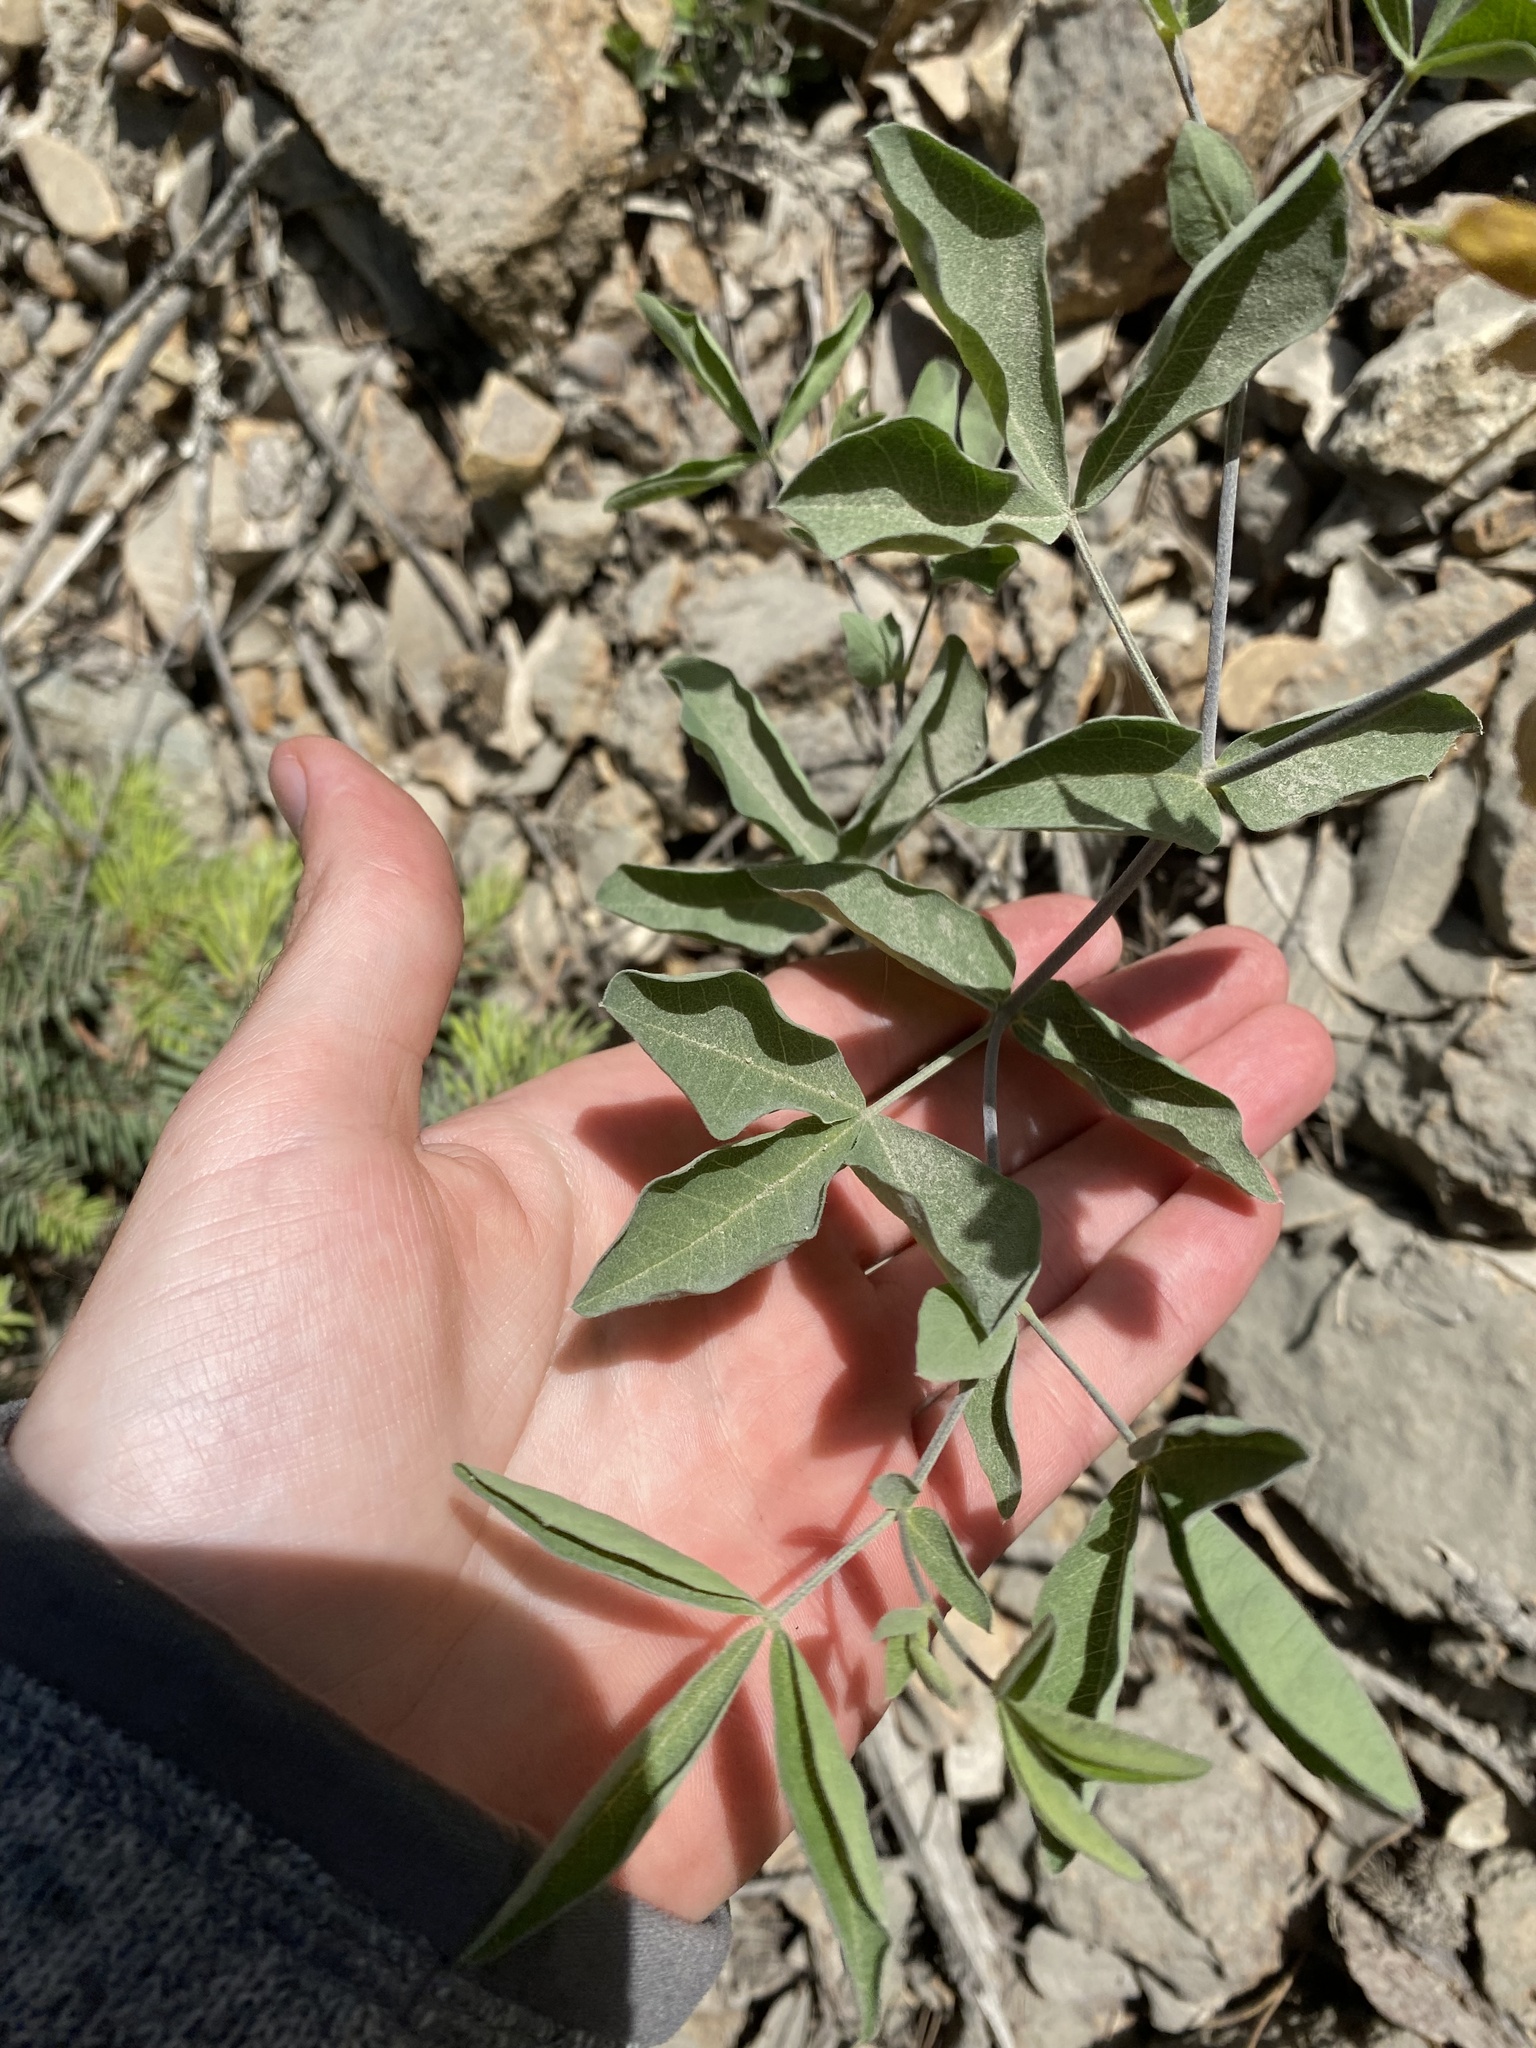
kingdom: Plantae
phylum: Tracheophyta
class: Magnoliopsida
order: Fabales
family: Fabaceae
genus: Thermopsis
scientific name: Thermopsis gracilis
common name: Slender golden-banner
